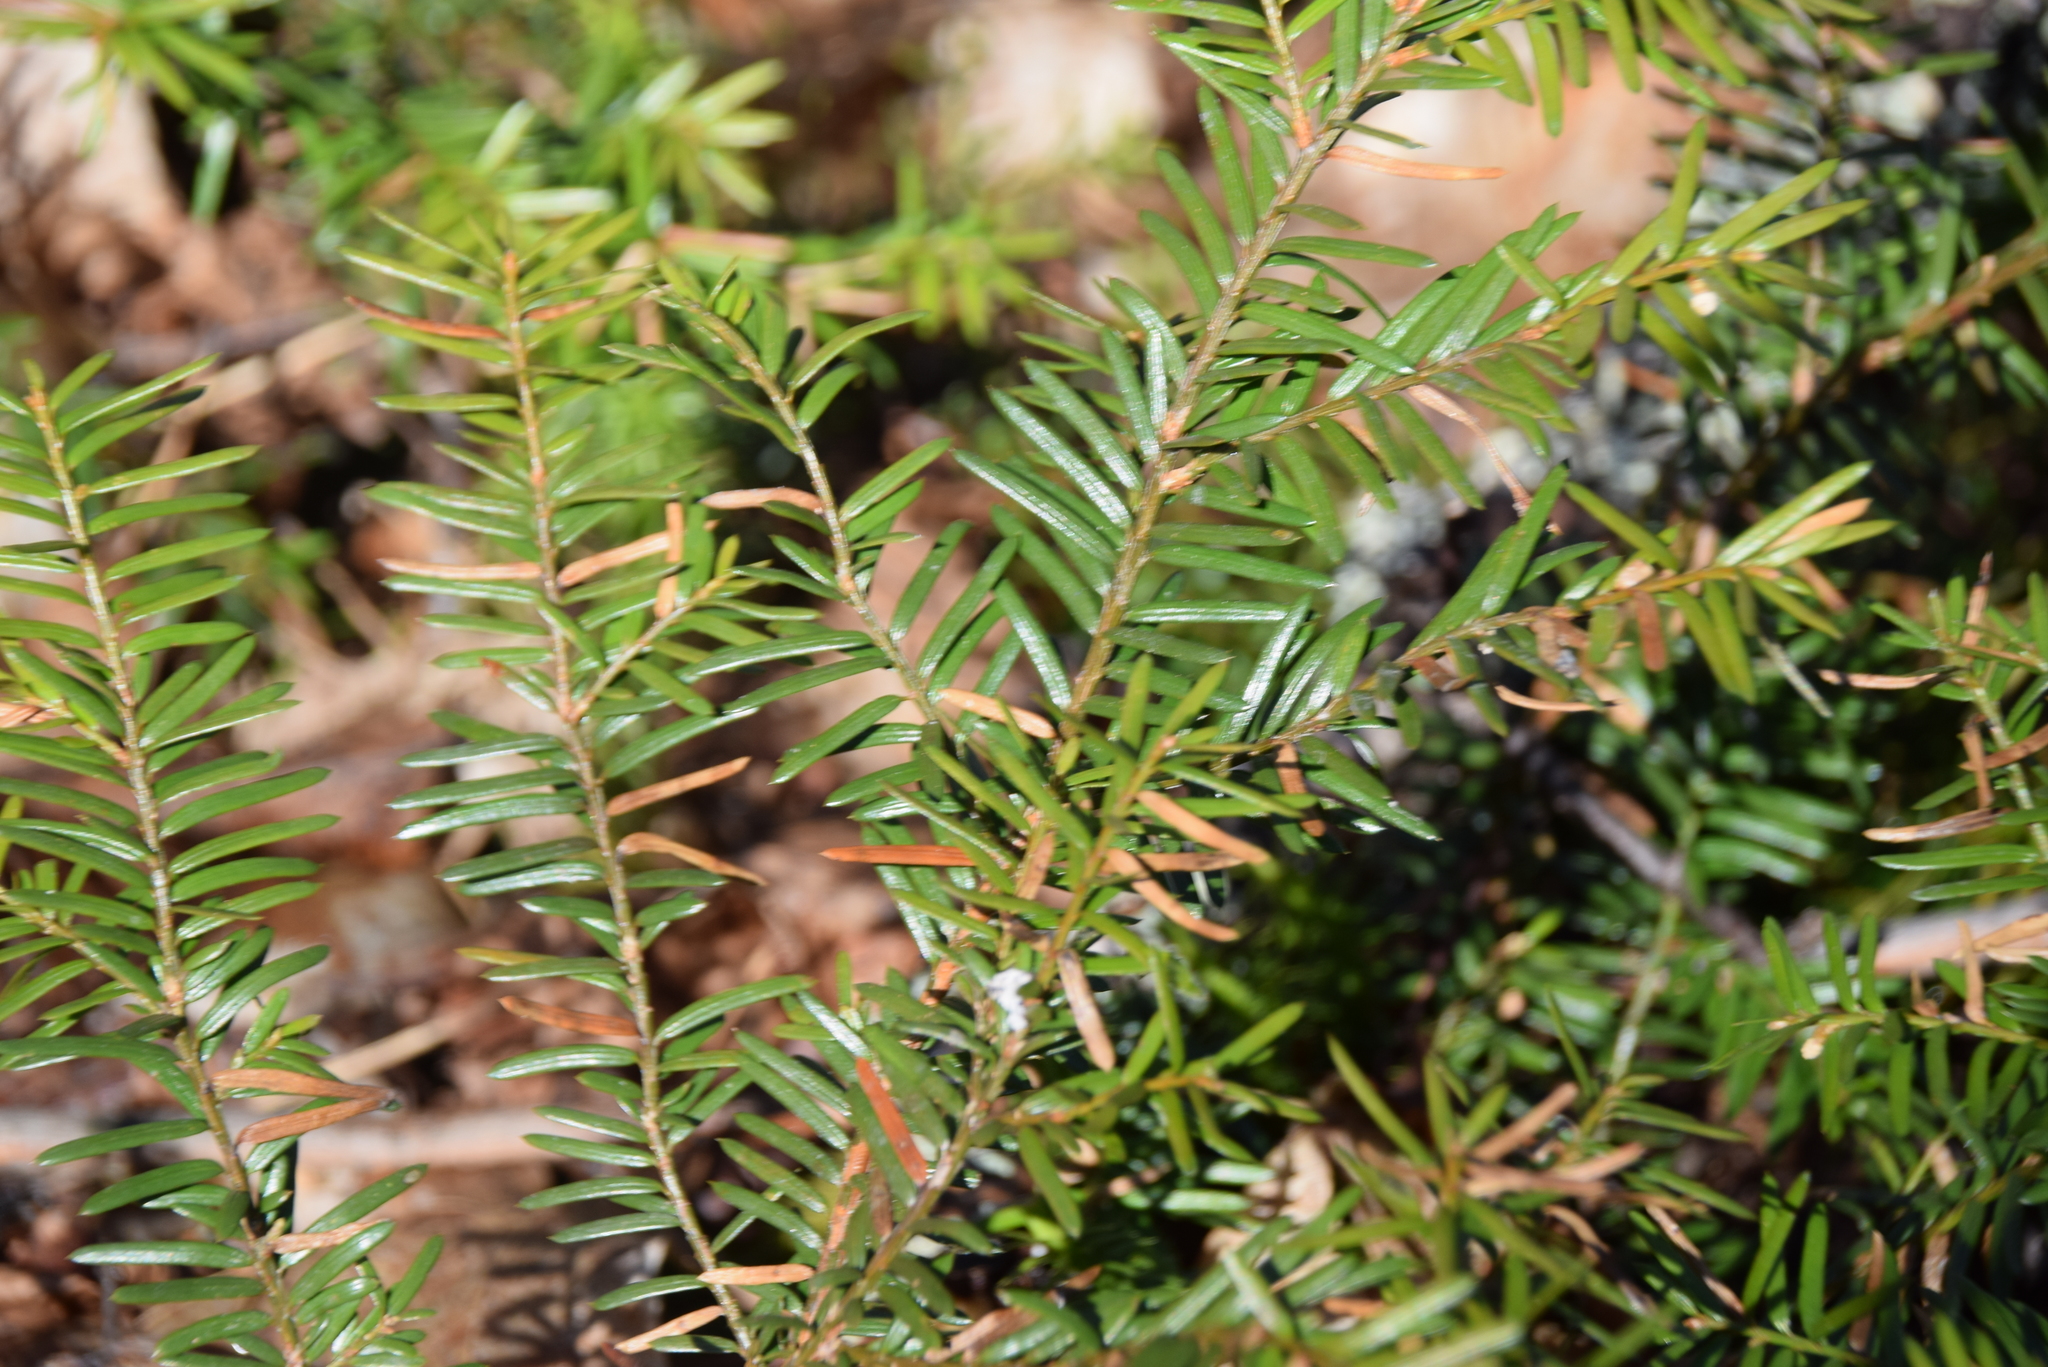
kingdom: Plantae
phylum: Tracheophyta
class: Pinopsida
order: Pinales
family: Taxaceae
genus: Taxus
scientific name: Taxus canadensis
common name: American yew
